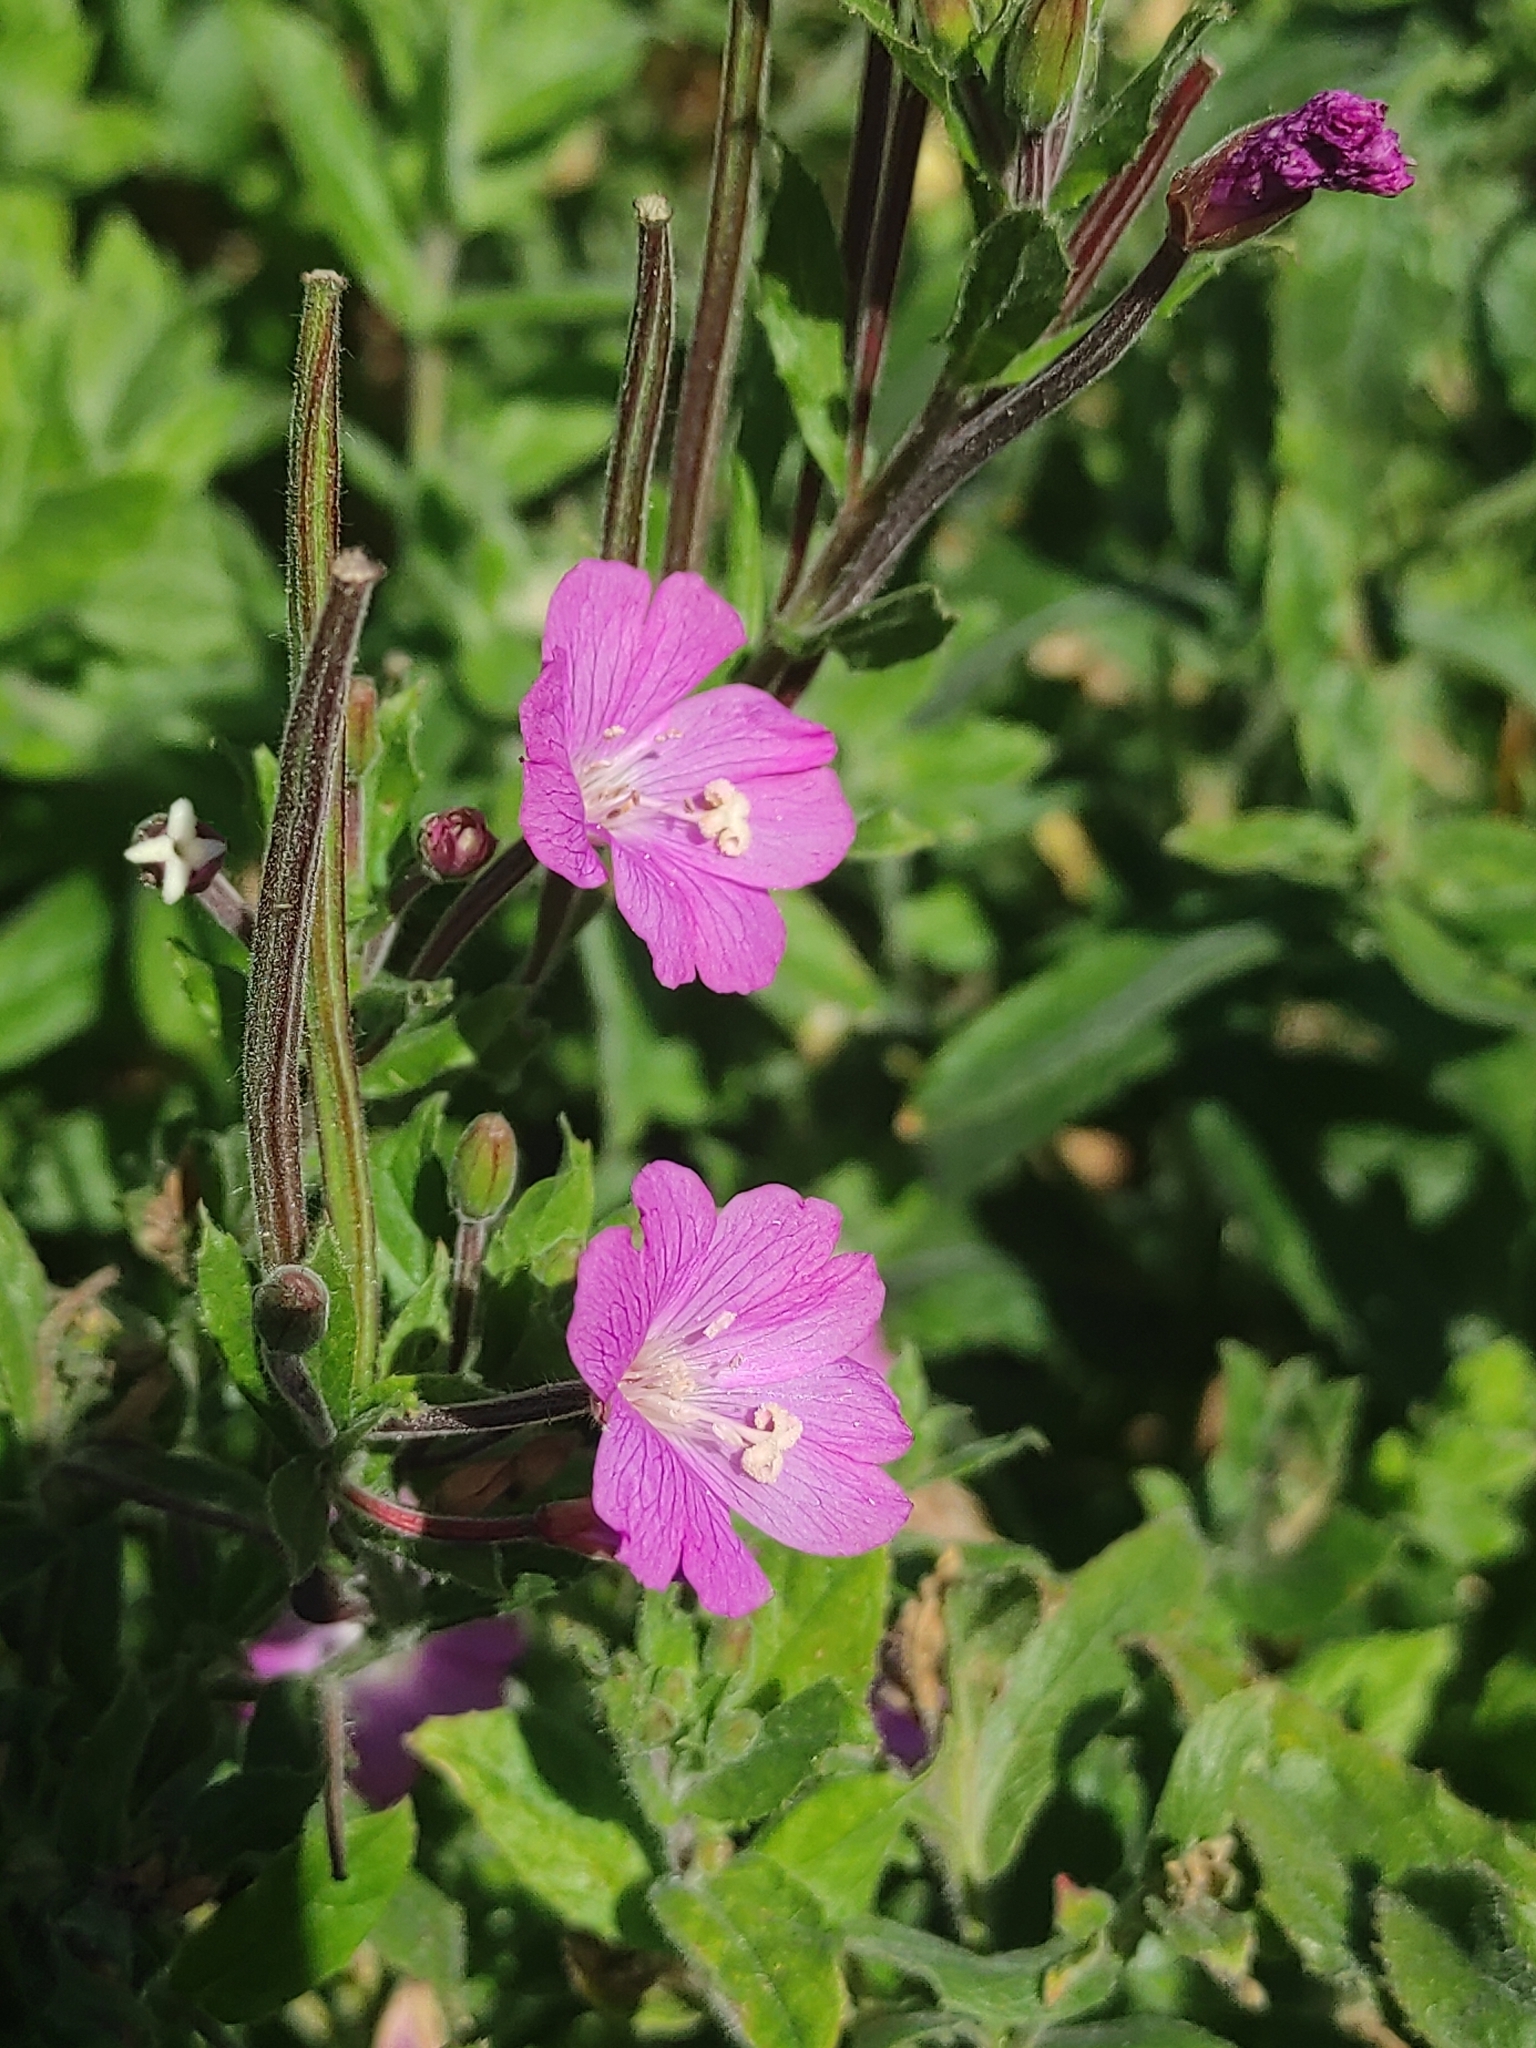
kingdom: Plantae
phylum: Tracheophyta
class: Magnoliopsida
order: Myrtales
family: Onagraceae
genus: Epilobium
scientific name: Epilobium hirsutum
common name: Great willowherb
